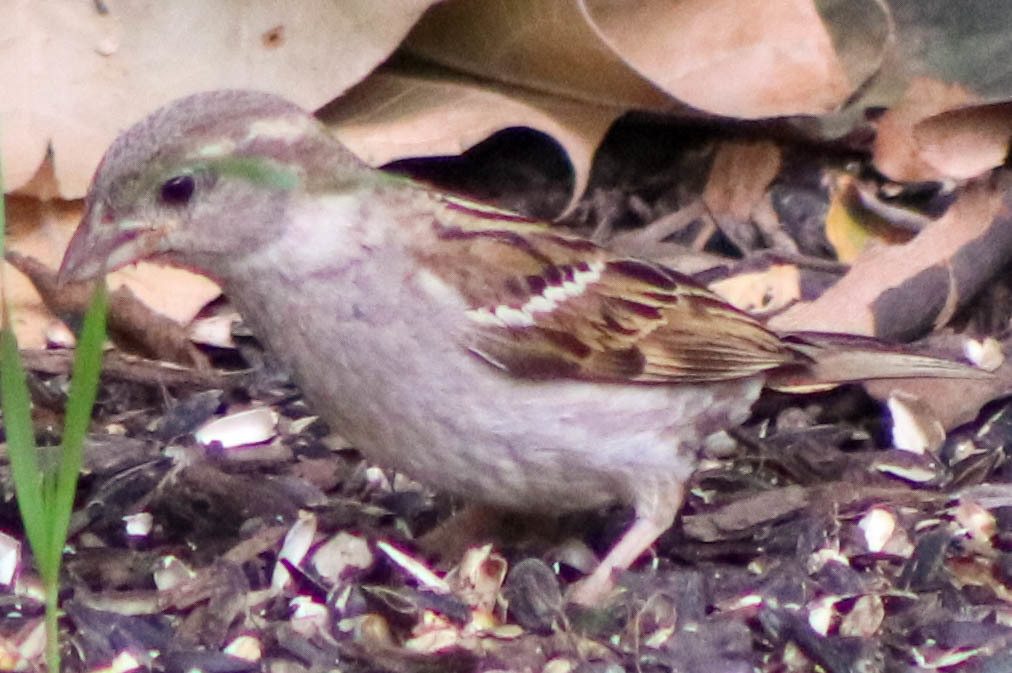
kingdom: Animalia
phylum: Chordata
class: Aves
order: Passeriformes
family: Passeridae
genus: Passer
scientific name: Passer domesticus
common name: House sparrow
